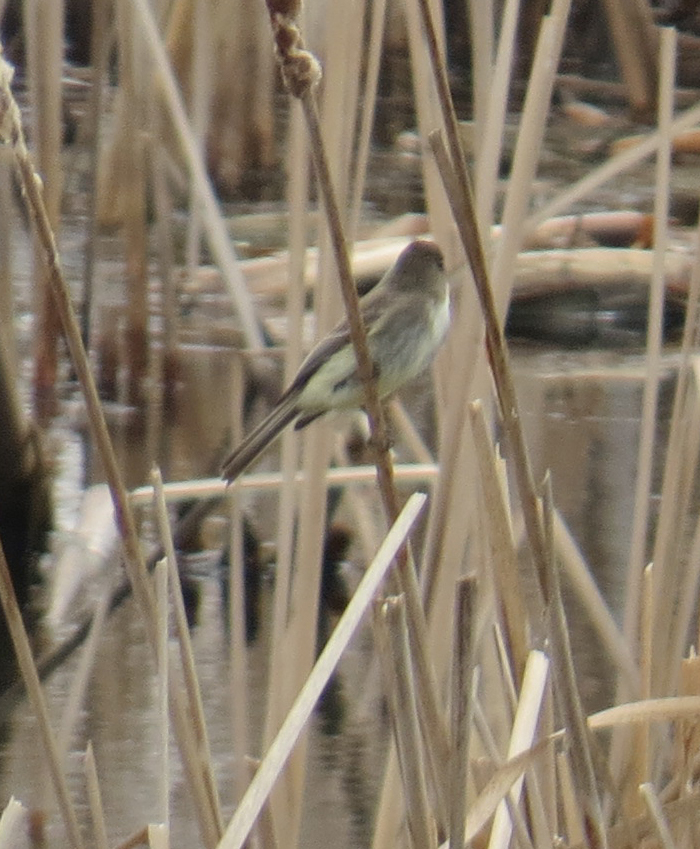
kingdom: Animalia
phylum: Chordata
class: Aves
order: Passeriformes
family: Tyrannidae
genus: Sayornis
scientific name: Sayornis phoebe
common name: Eastern phoebe
